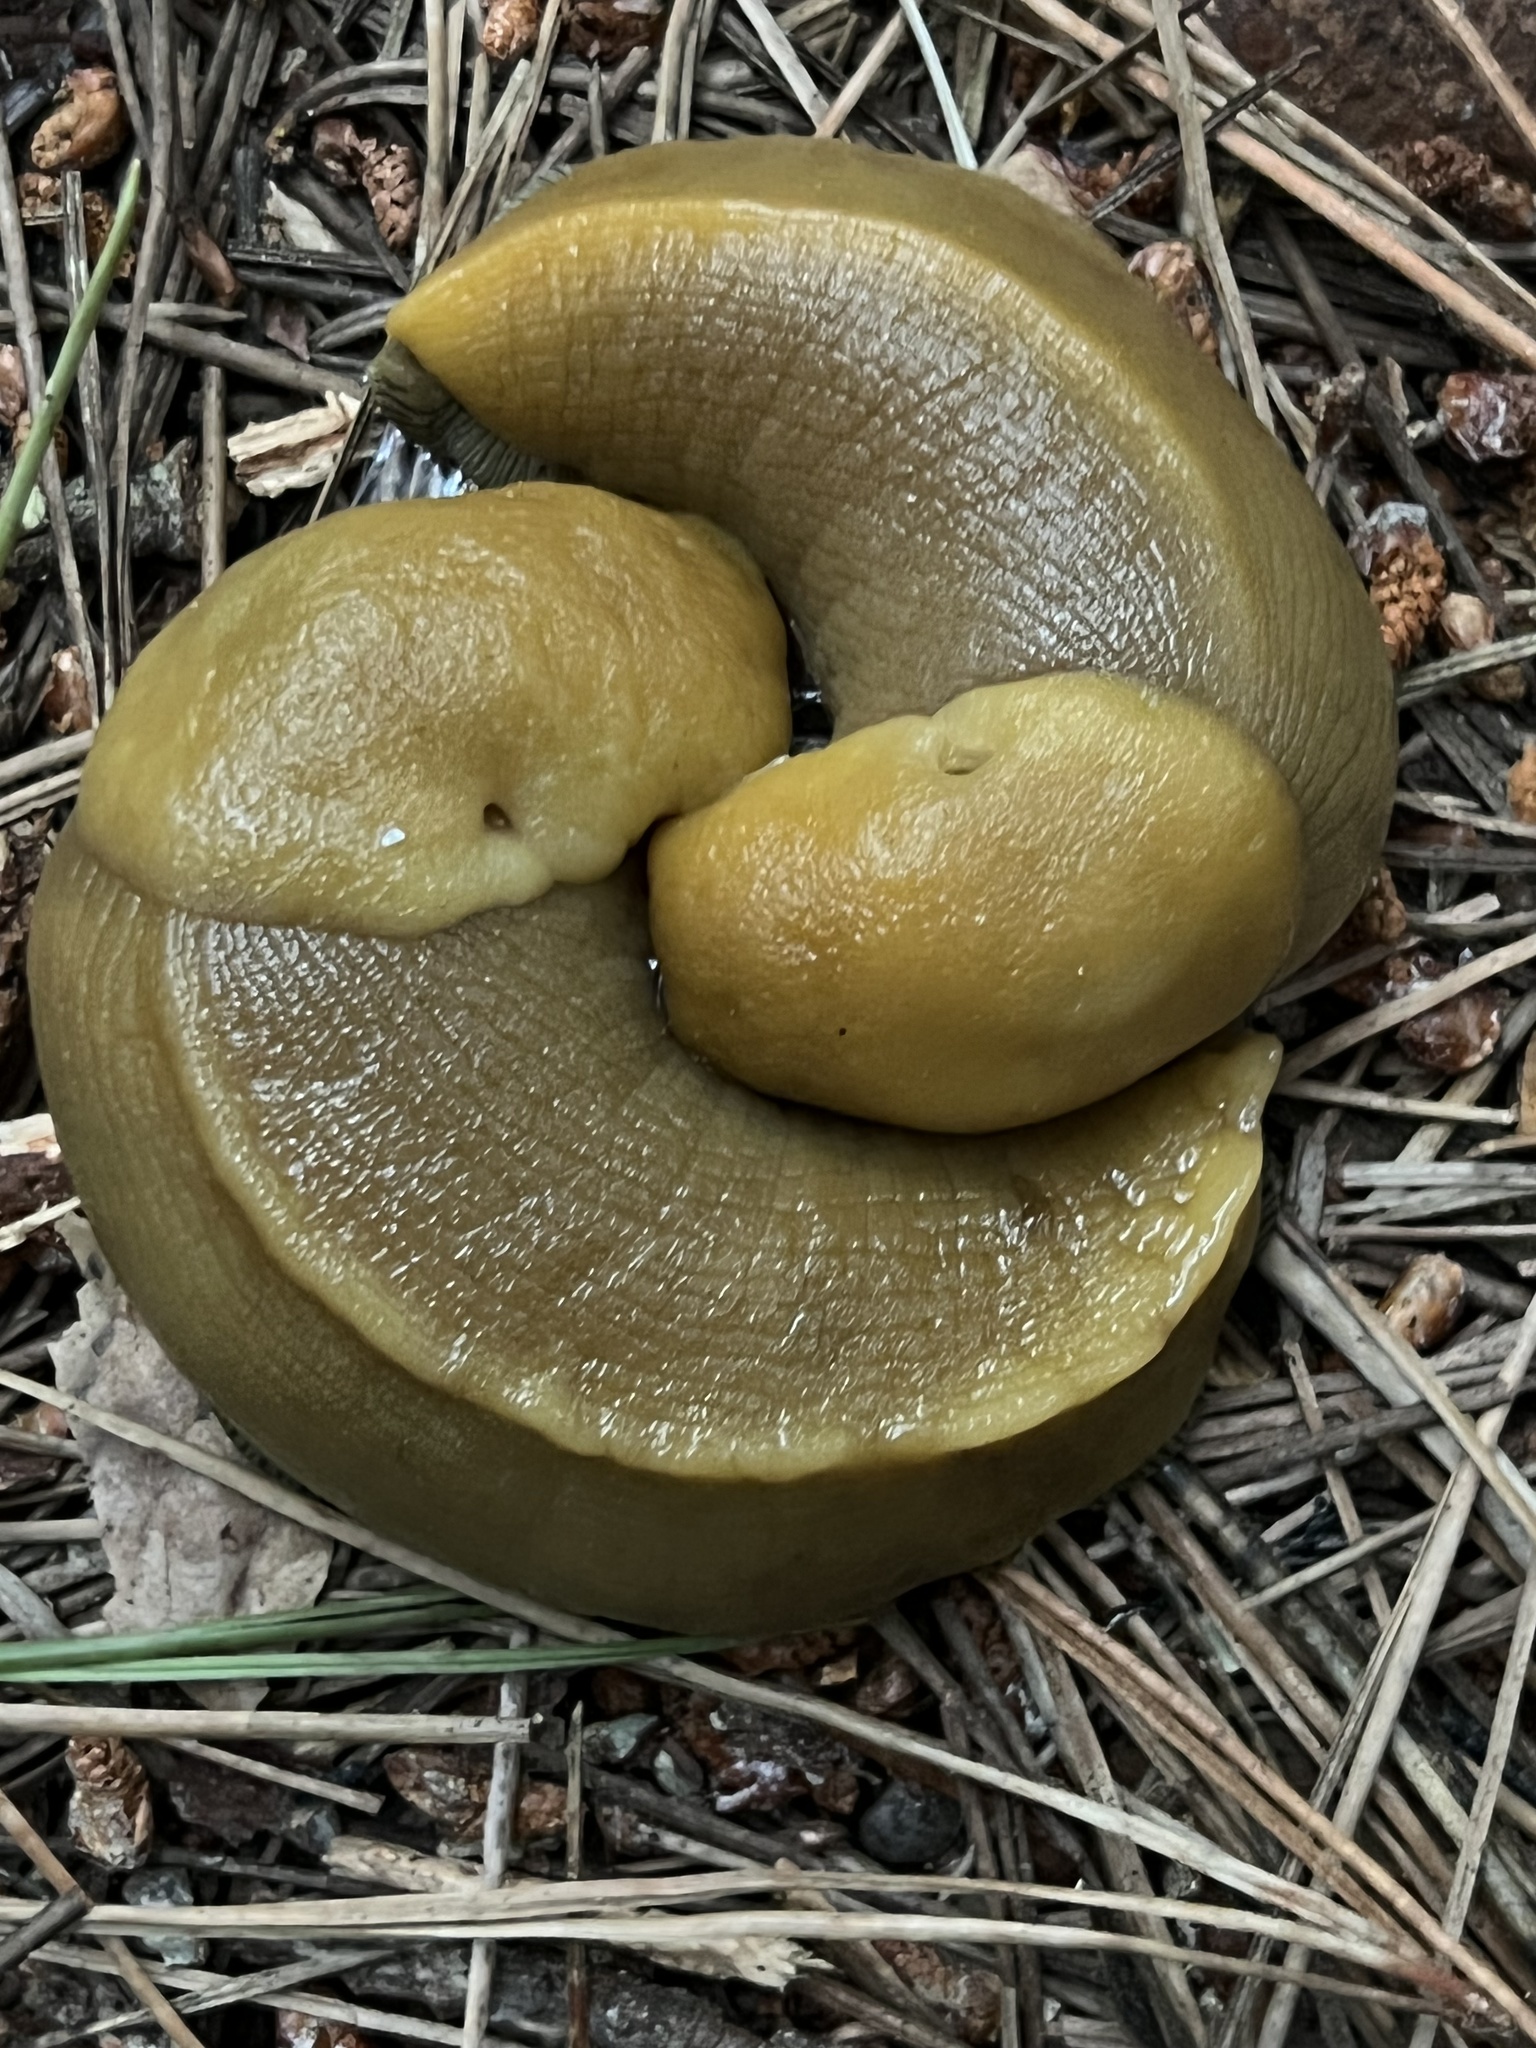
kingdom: Animalia
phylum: Mollusca
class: Gastropoda
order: Stylommatophora
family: Ariolimacidae
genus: Ariolimax
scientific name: Ariolimax buttoni
